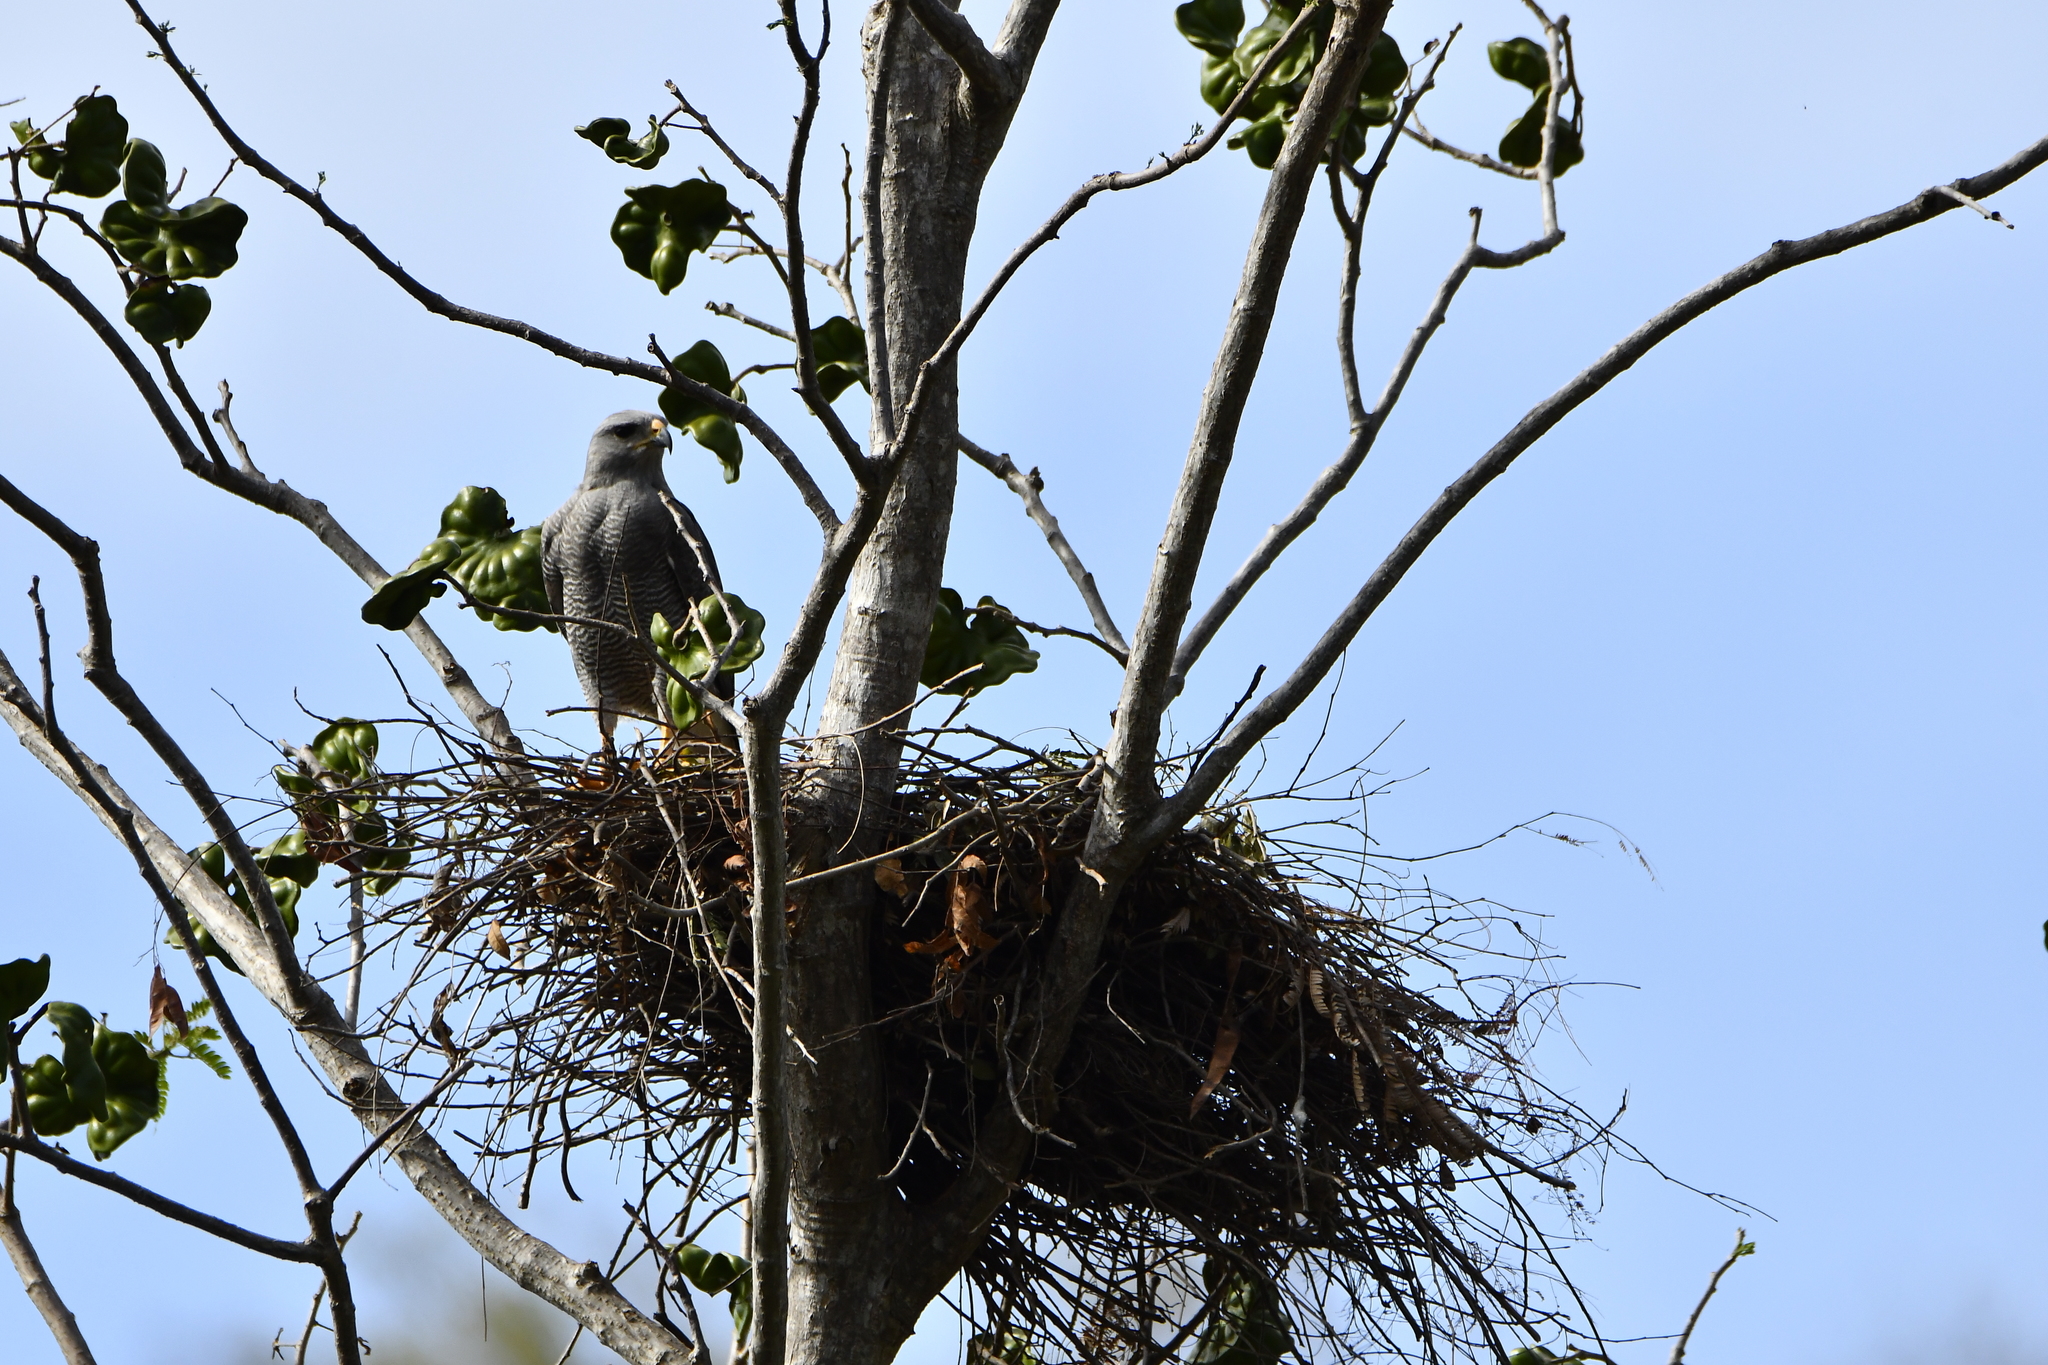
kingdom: Animalia
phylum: Chordata
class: Aves
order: Accipitriformes
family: Accipitridae
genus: Buteo
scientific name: Buteo nitidus
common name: Grey-lined hawk
